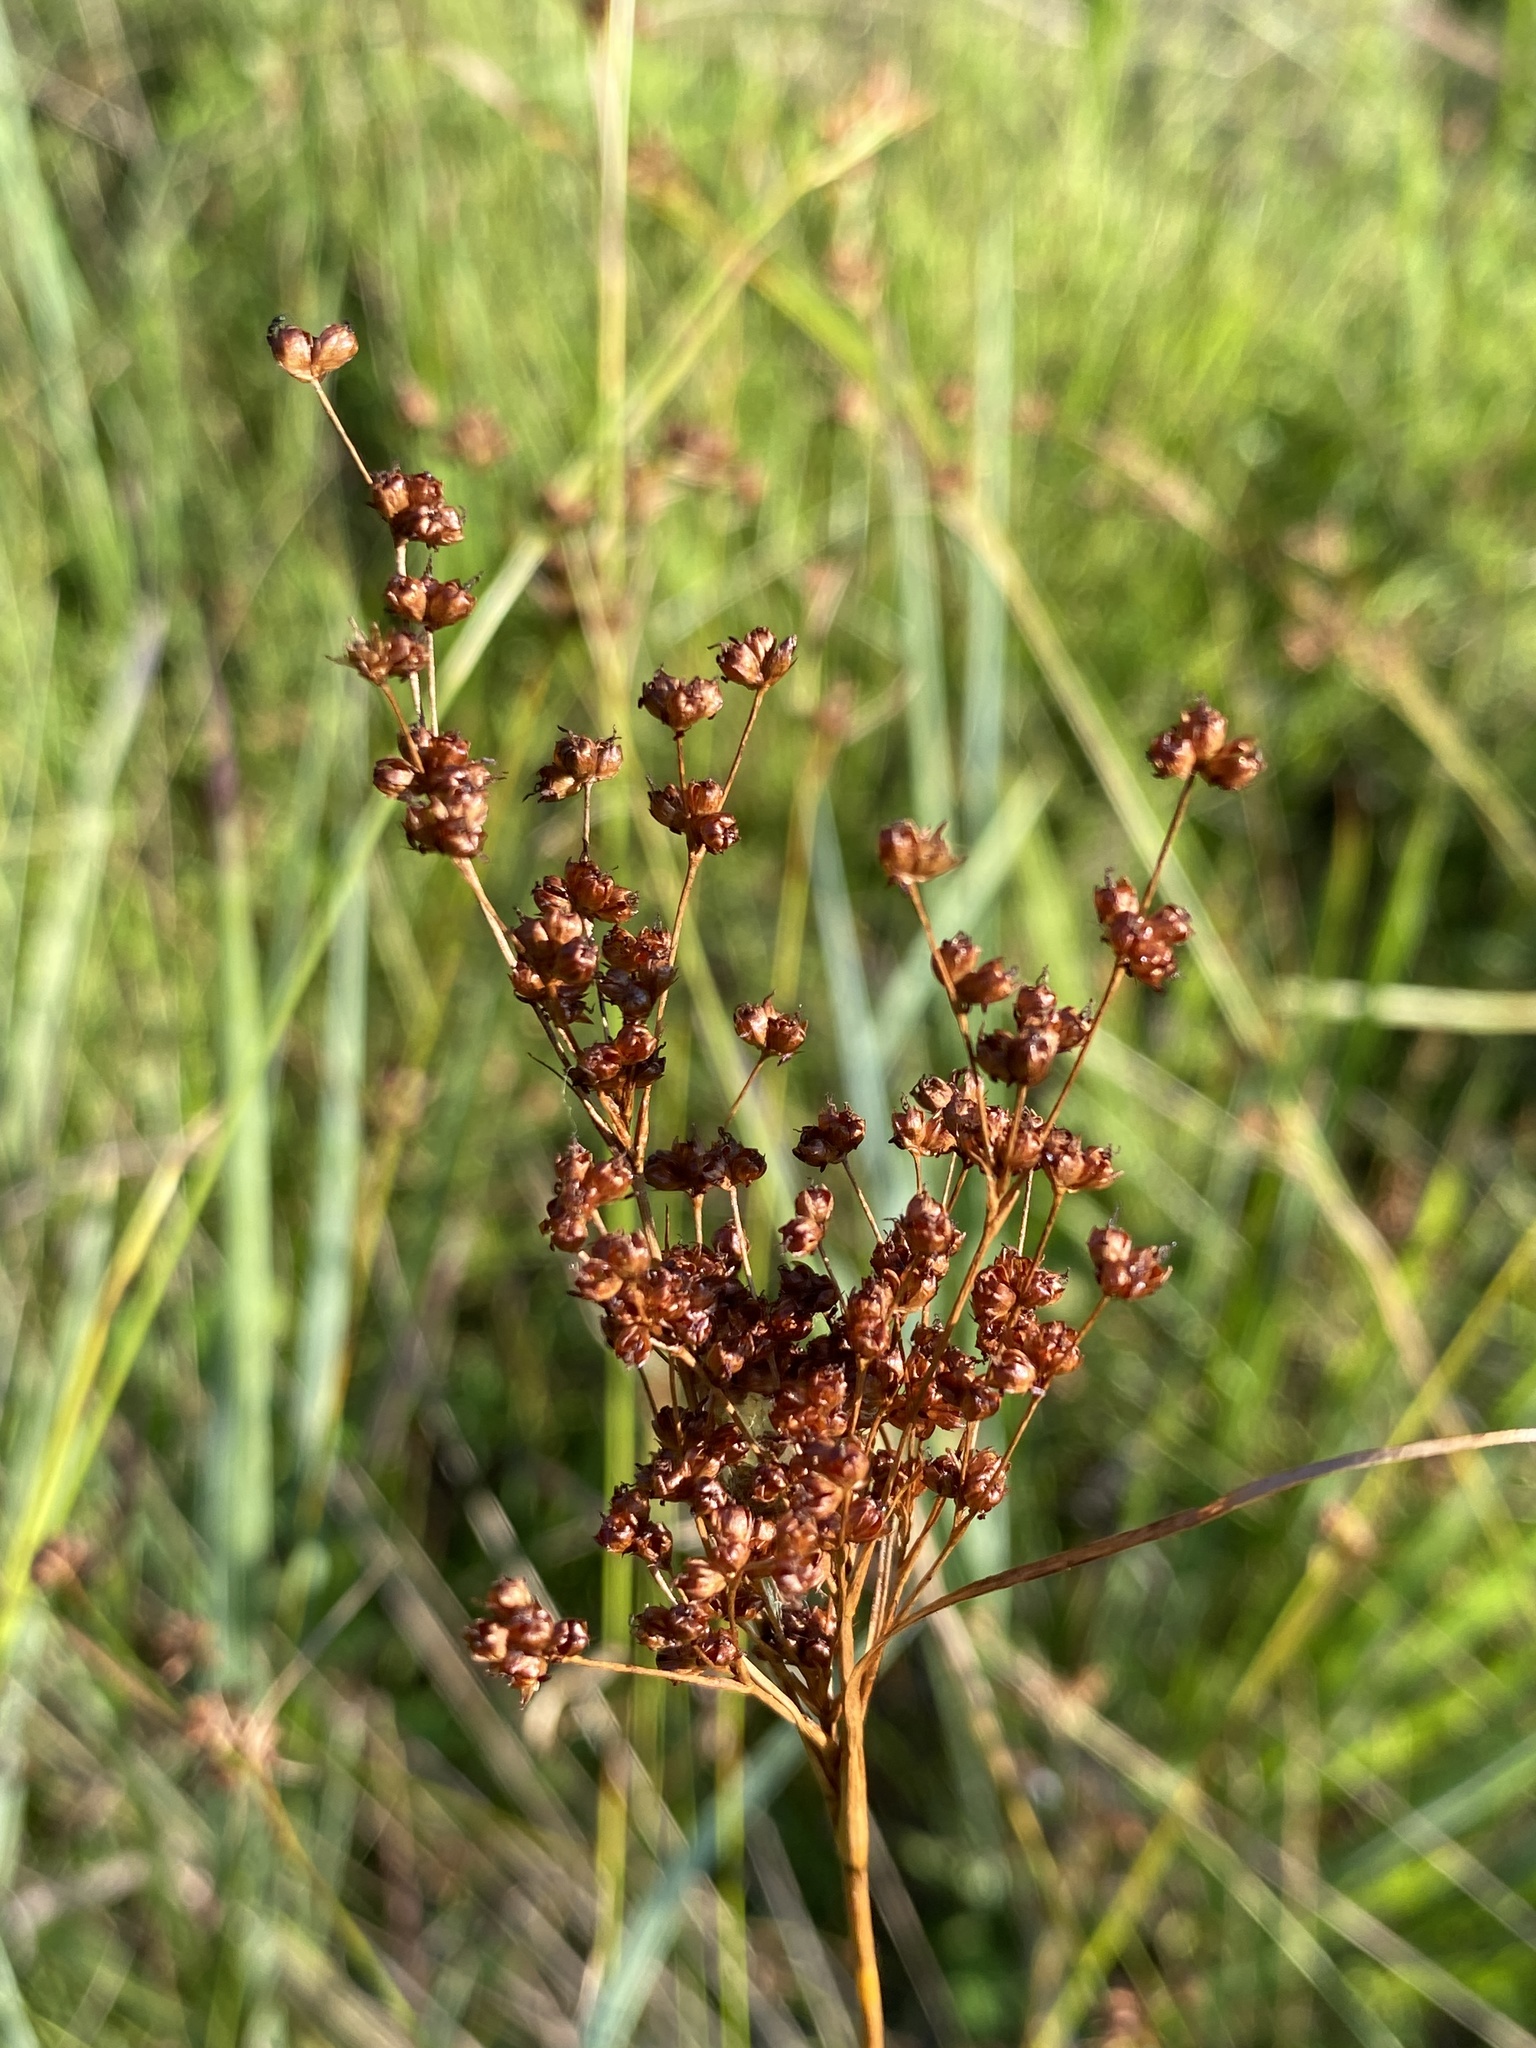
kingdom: Plantae
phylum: Tracheophyta
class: Liliopsida
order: Poales
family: Juncaceae
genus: Juncus
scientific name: Juncus marginatus
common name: Grass-leaf rush
